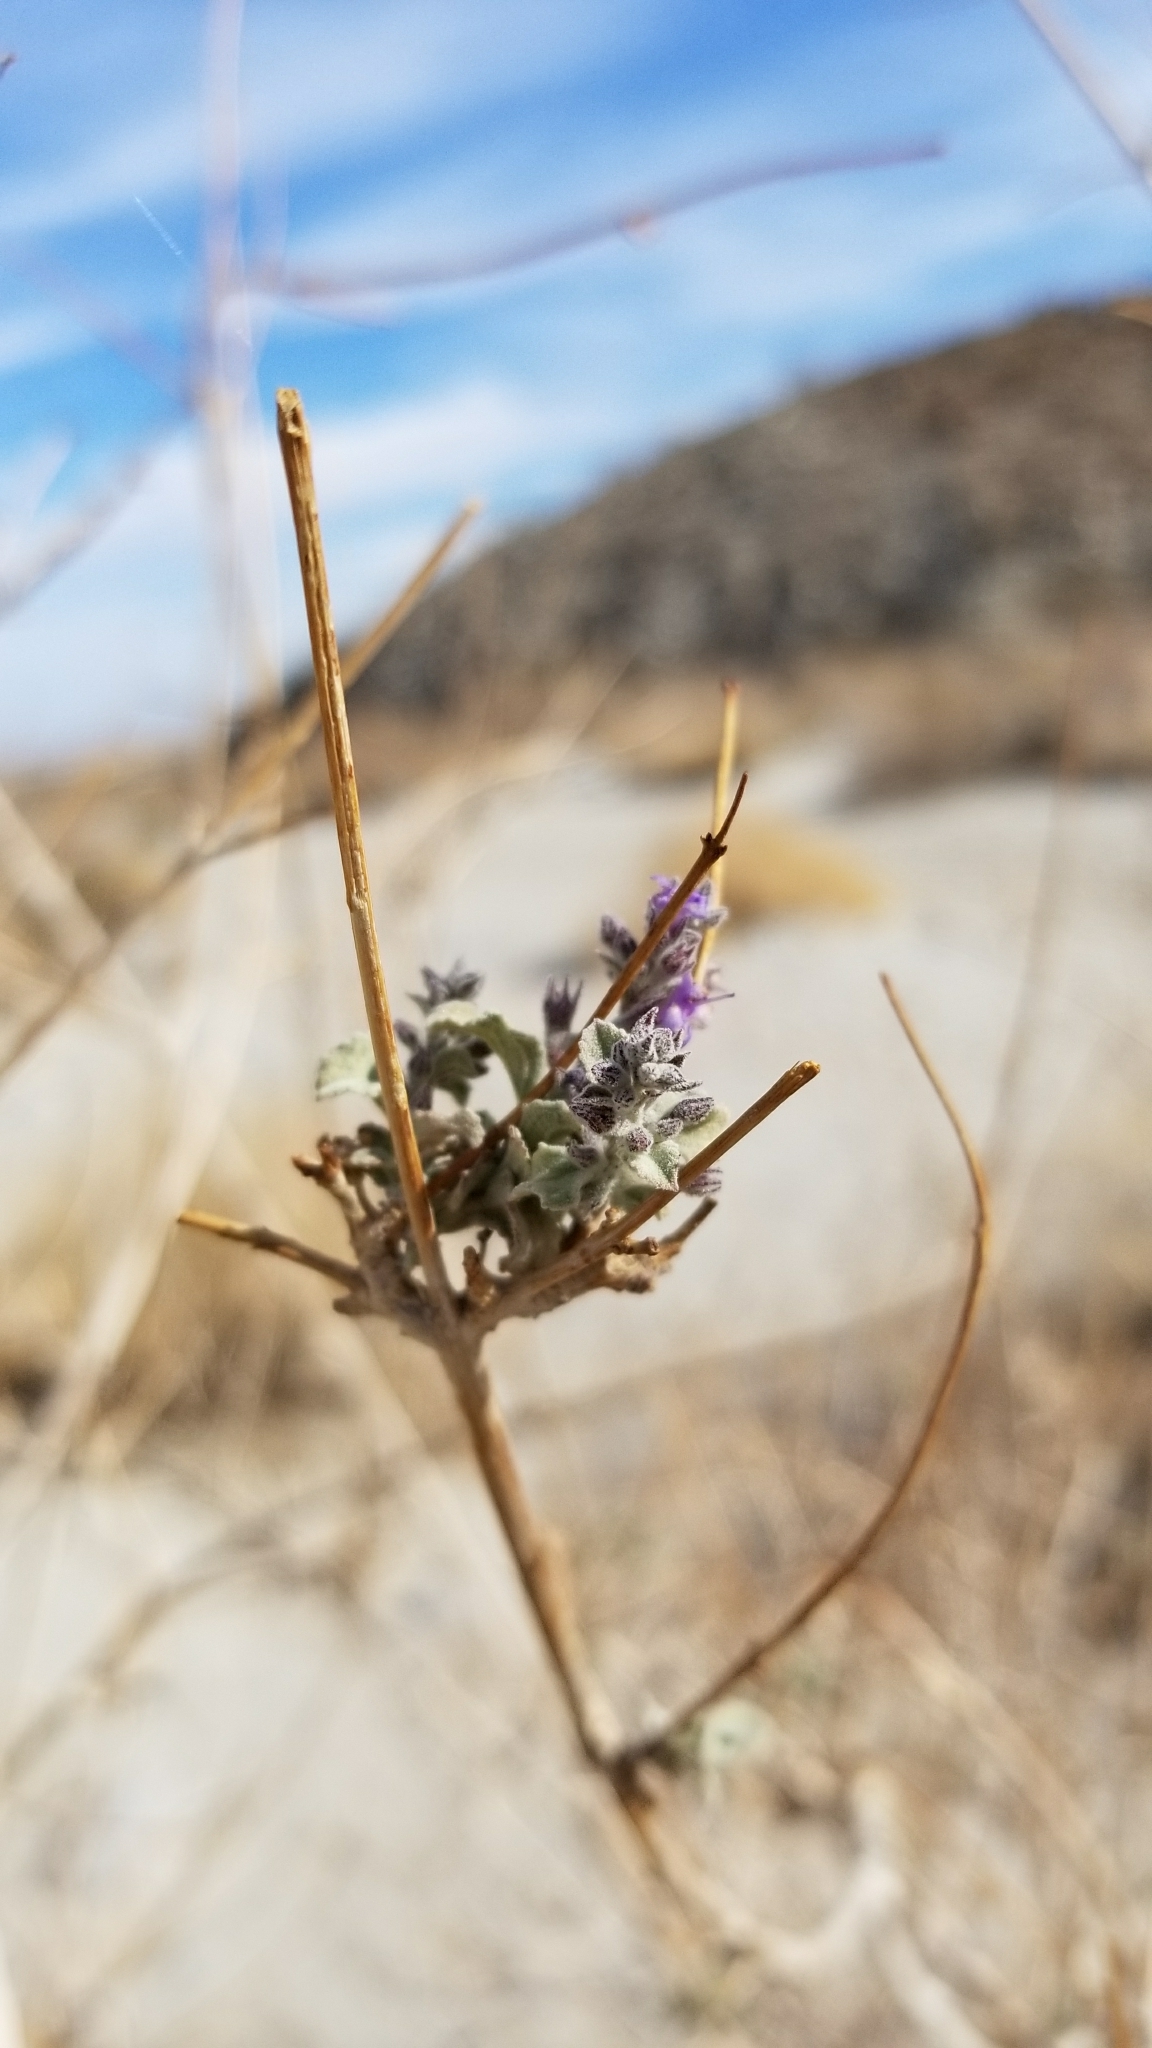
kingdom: Plantae
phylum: Tracheophyta
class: Magnoliopsida
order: Lamiales
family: Lamiaceae
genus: Condea
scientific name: Condea emoryi
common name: Chia
